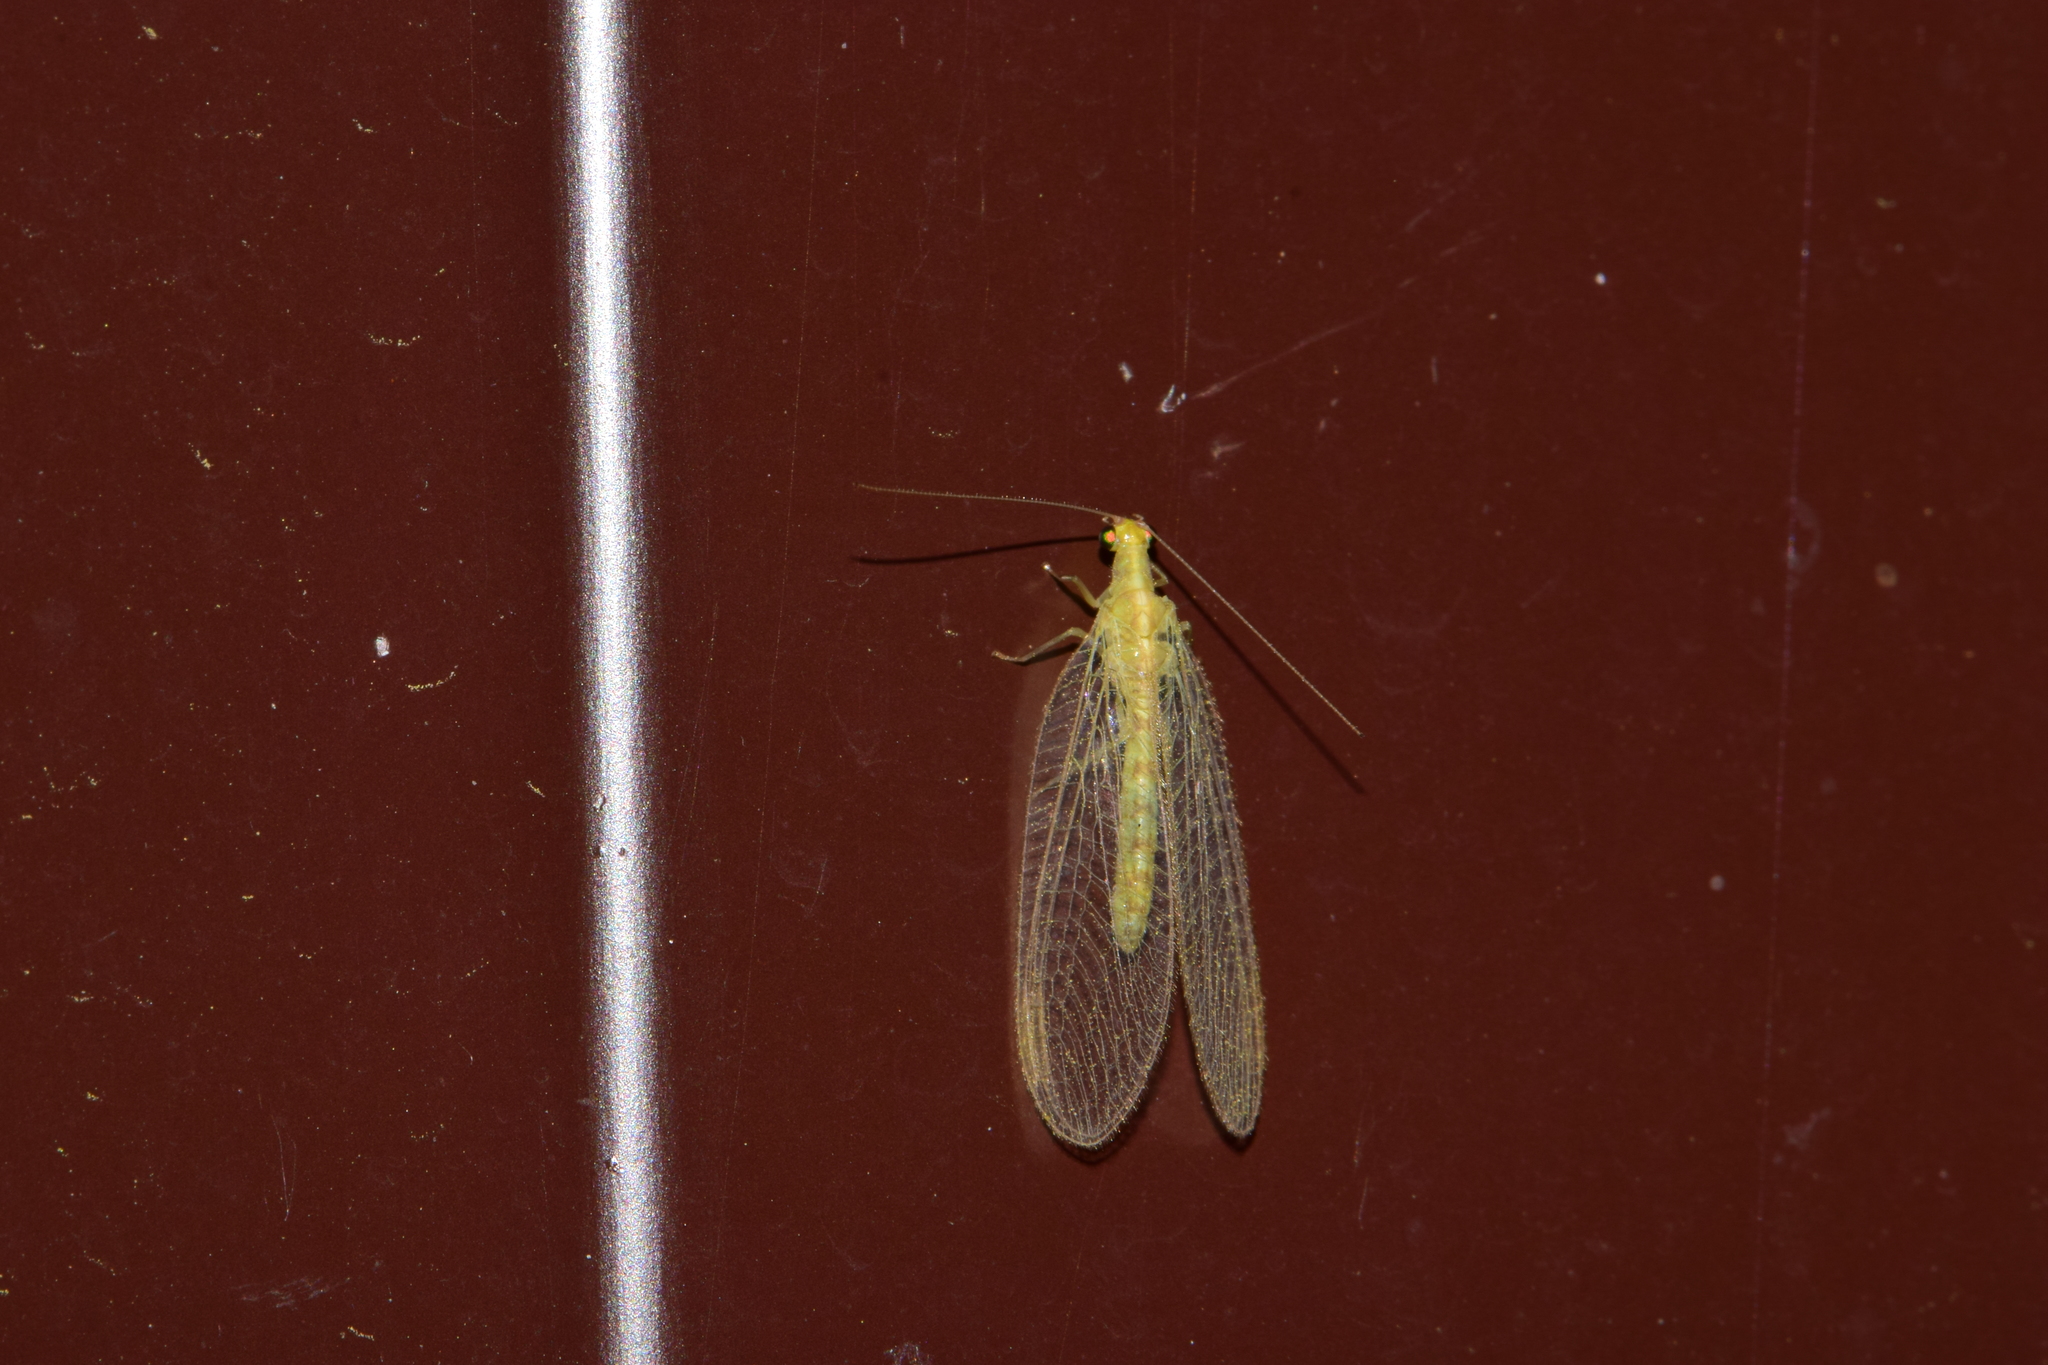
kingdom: Animalia
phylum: Arthropoda
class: Insecta
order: Neuroptera
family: Chrysopidae
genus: Chrysoperla
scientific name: Chrysoperla
